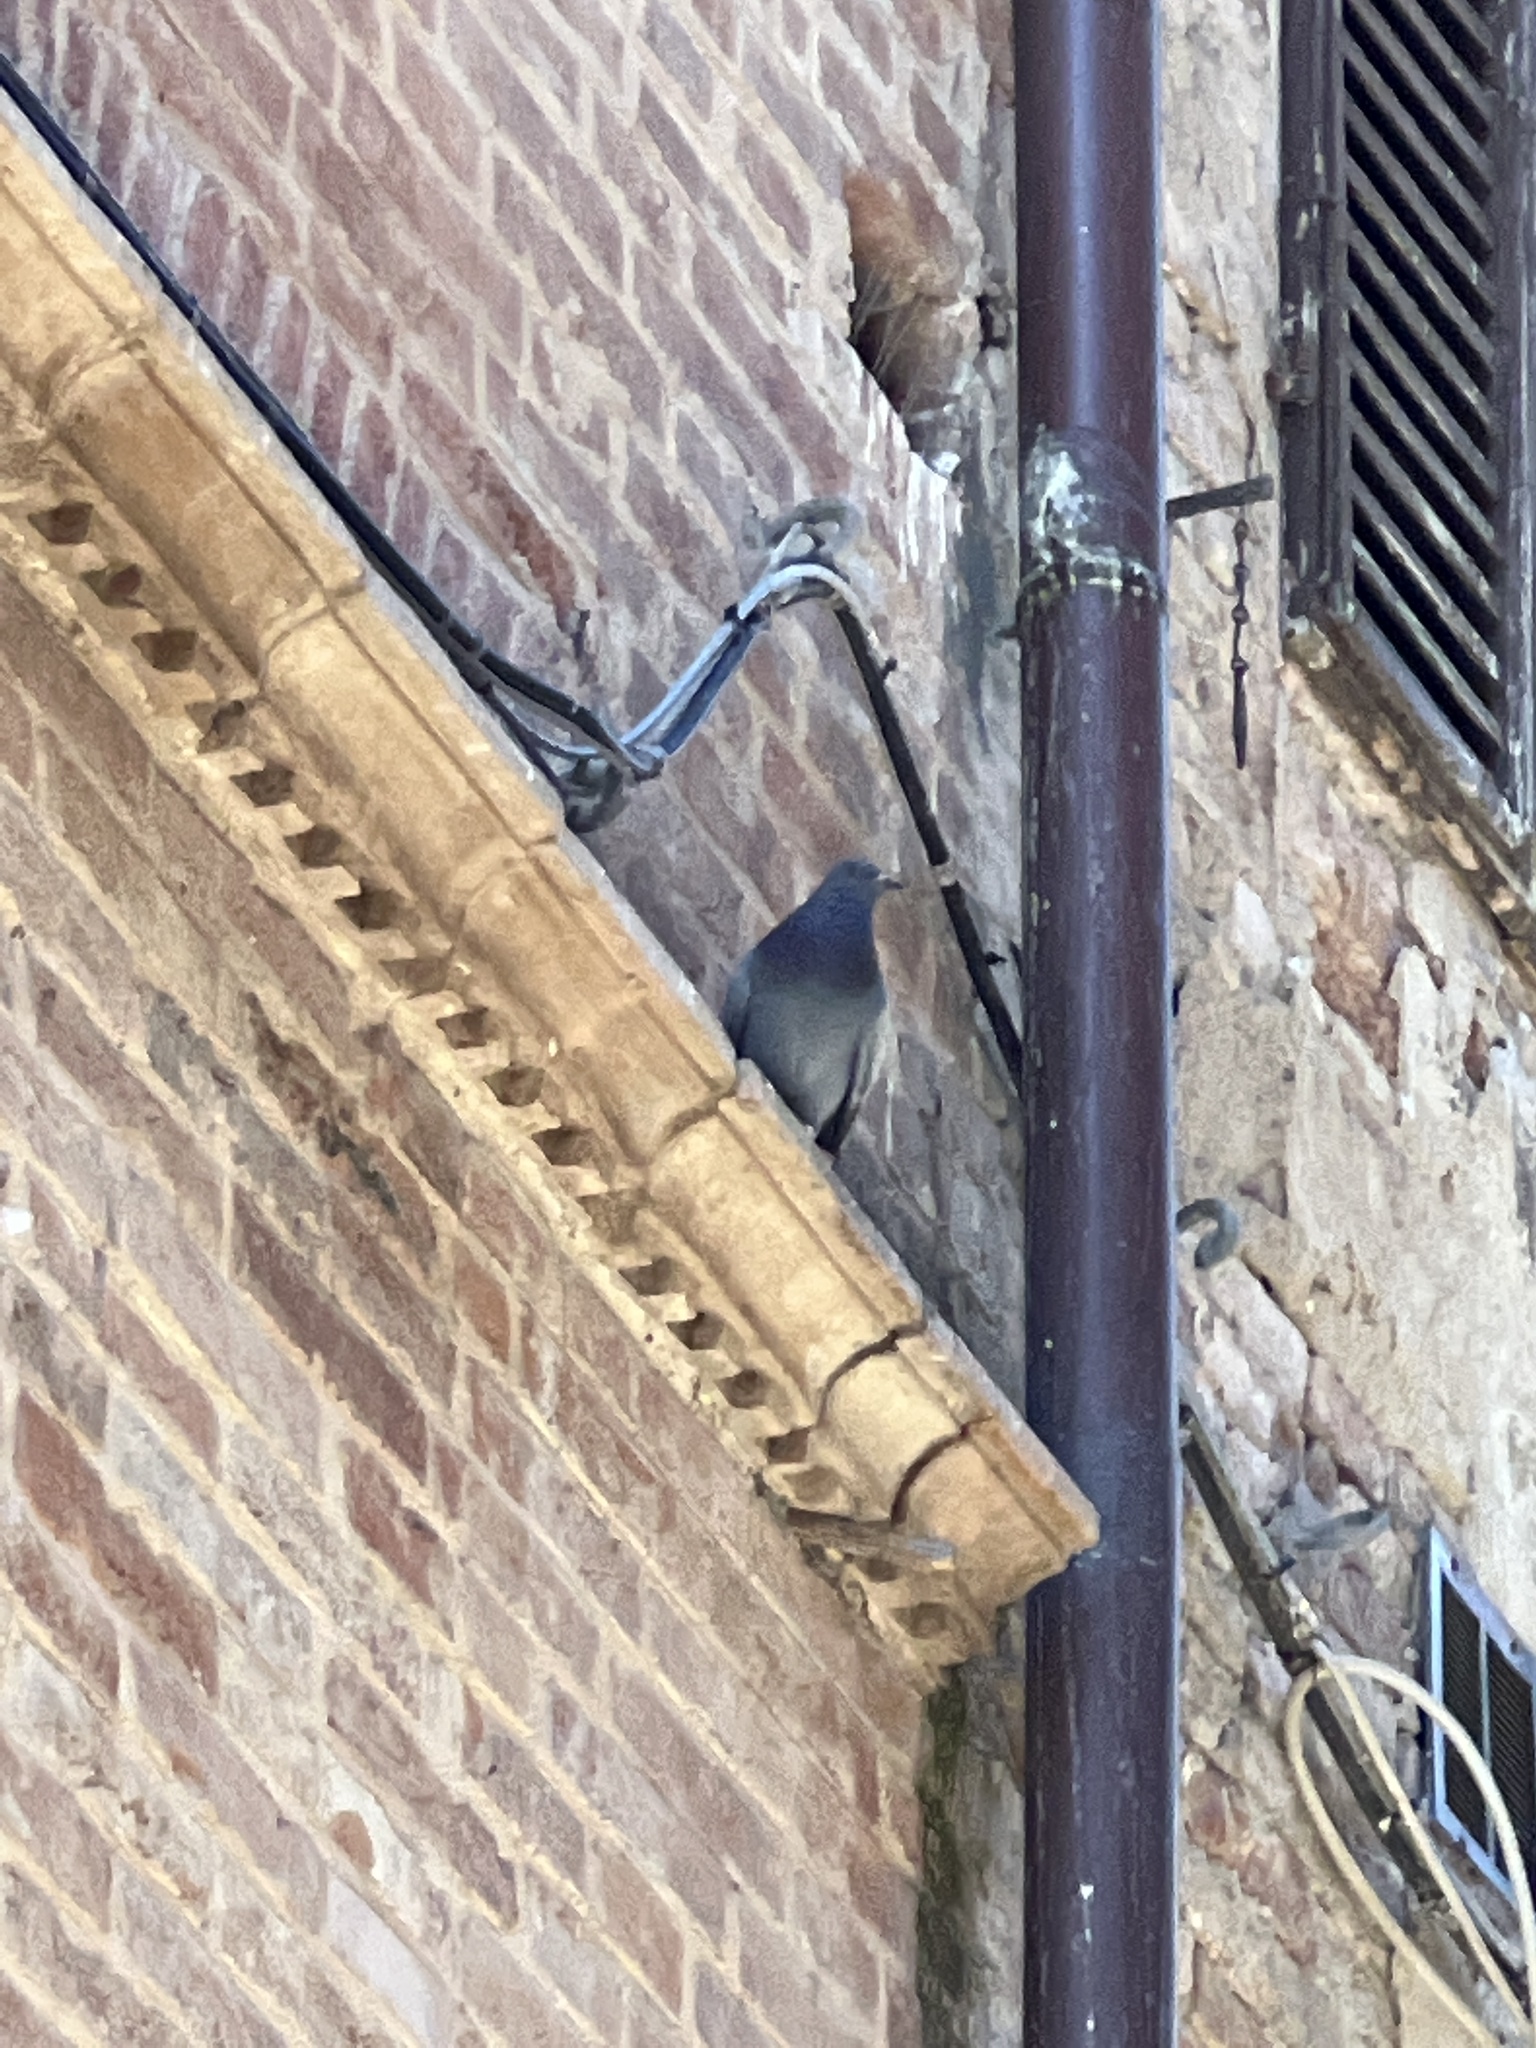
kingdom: Animalia
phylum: Chordata
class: Aves
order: Columbiformes
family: Columbidae
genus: Columba
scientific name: Columba livia
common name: Rock pigeon
